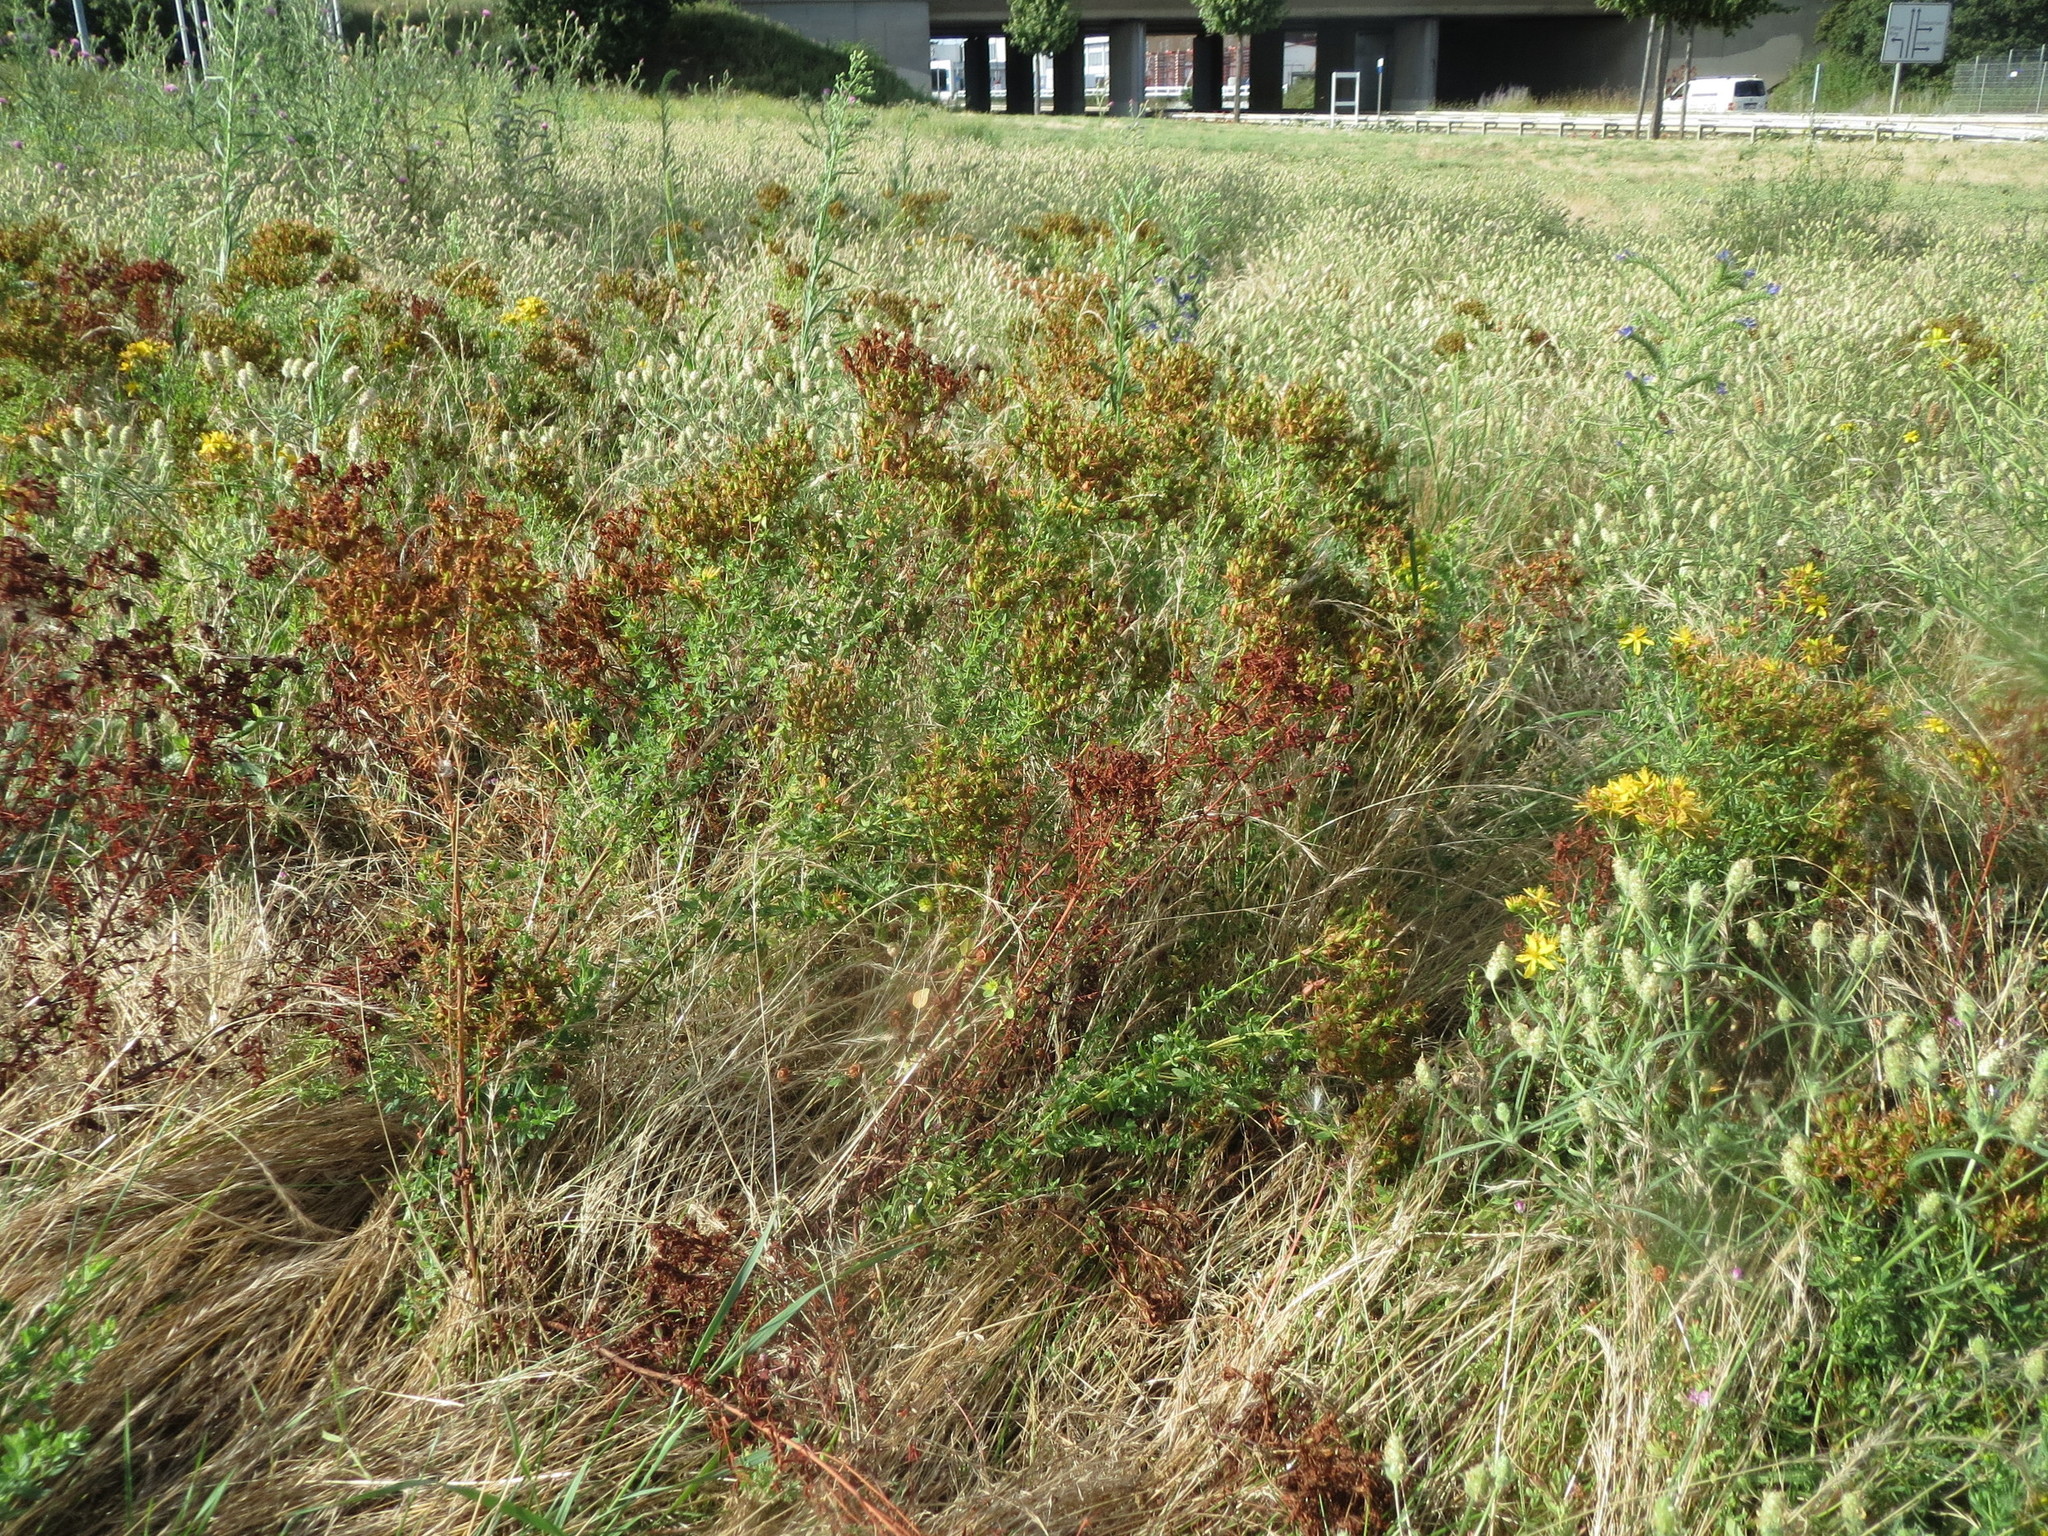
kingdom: Plantae
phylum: Tracheophyta
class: Magnoliopsida
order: Malpighiales
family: Hypericaceae
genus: Hypericum
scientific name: Hypericum perforatum
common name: Common st. johnswort
